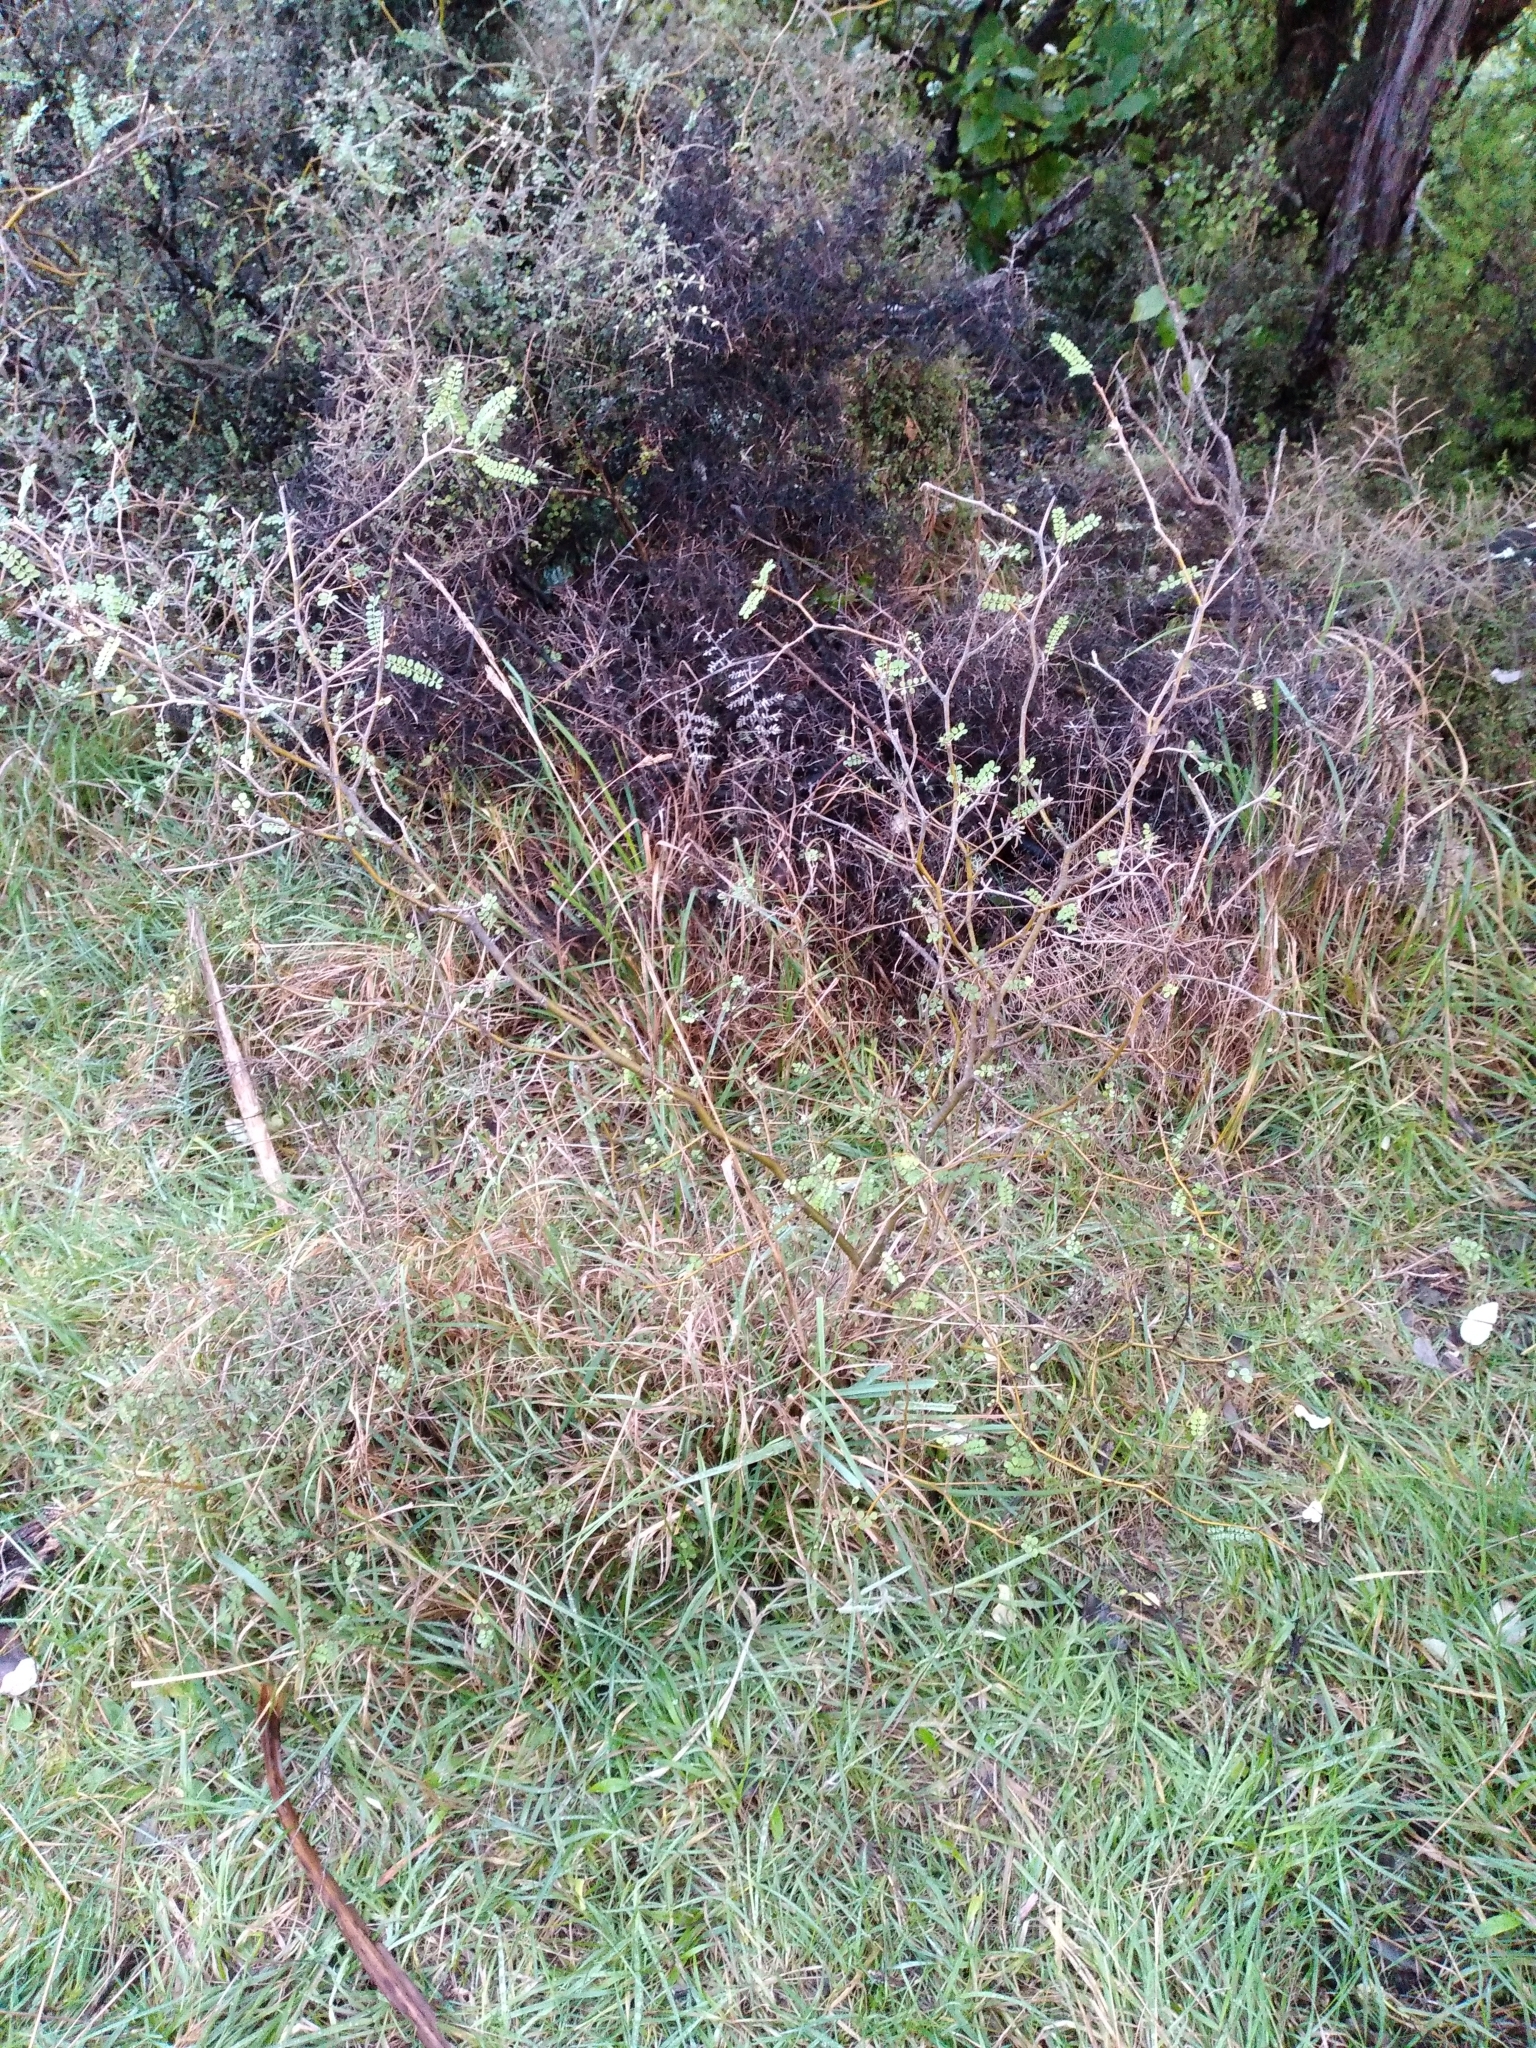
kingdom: Plantae
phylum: Tracheophyta
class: Magnoliopsida
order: Fabales
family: Fabaceae
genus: Sophora
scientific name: Sophora microphylla
